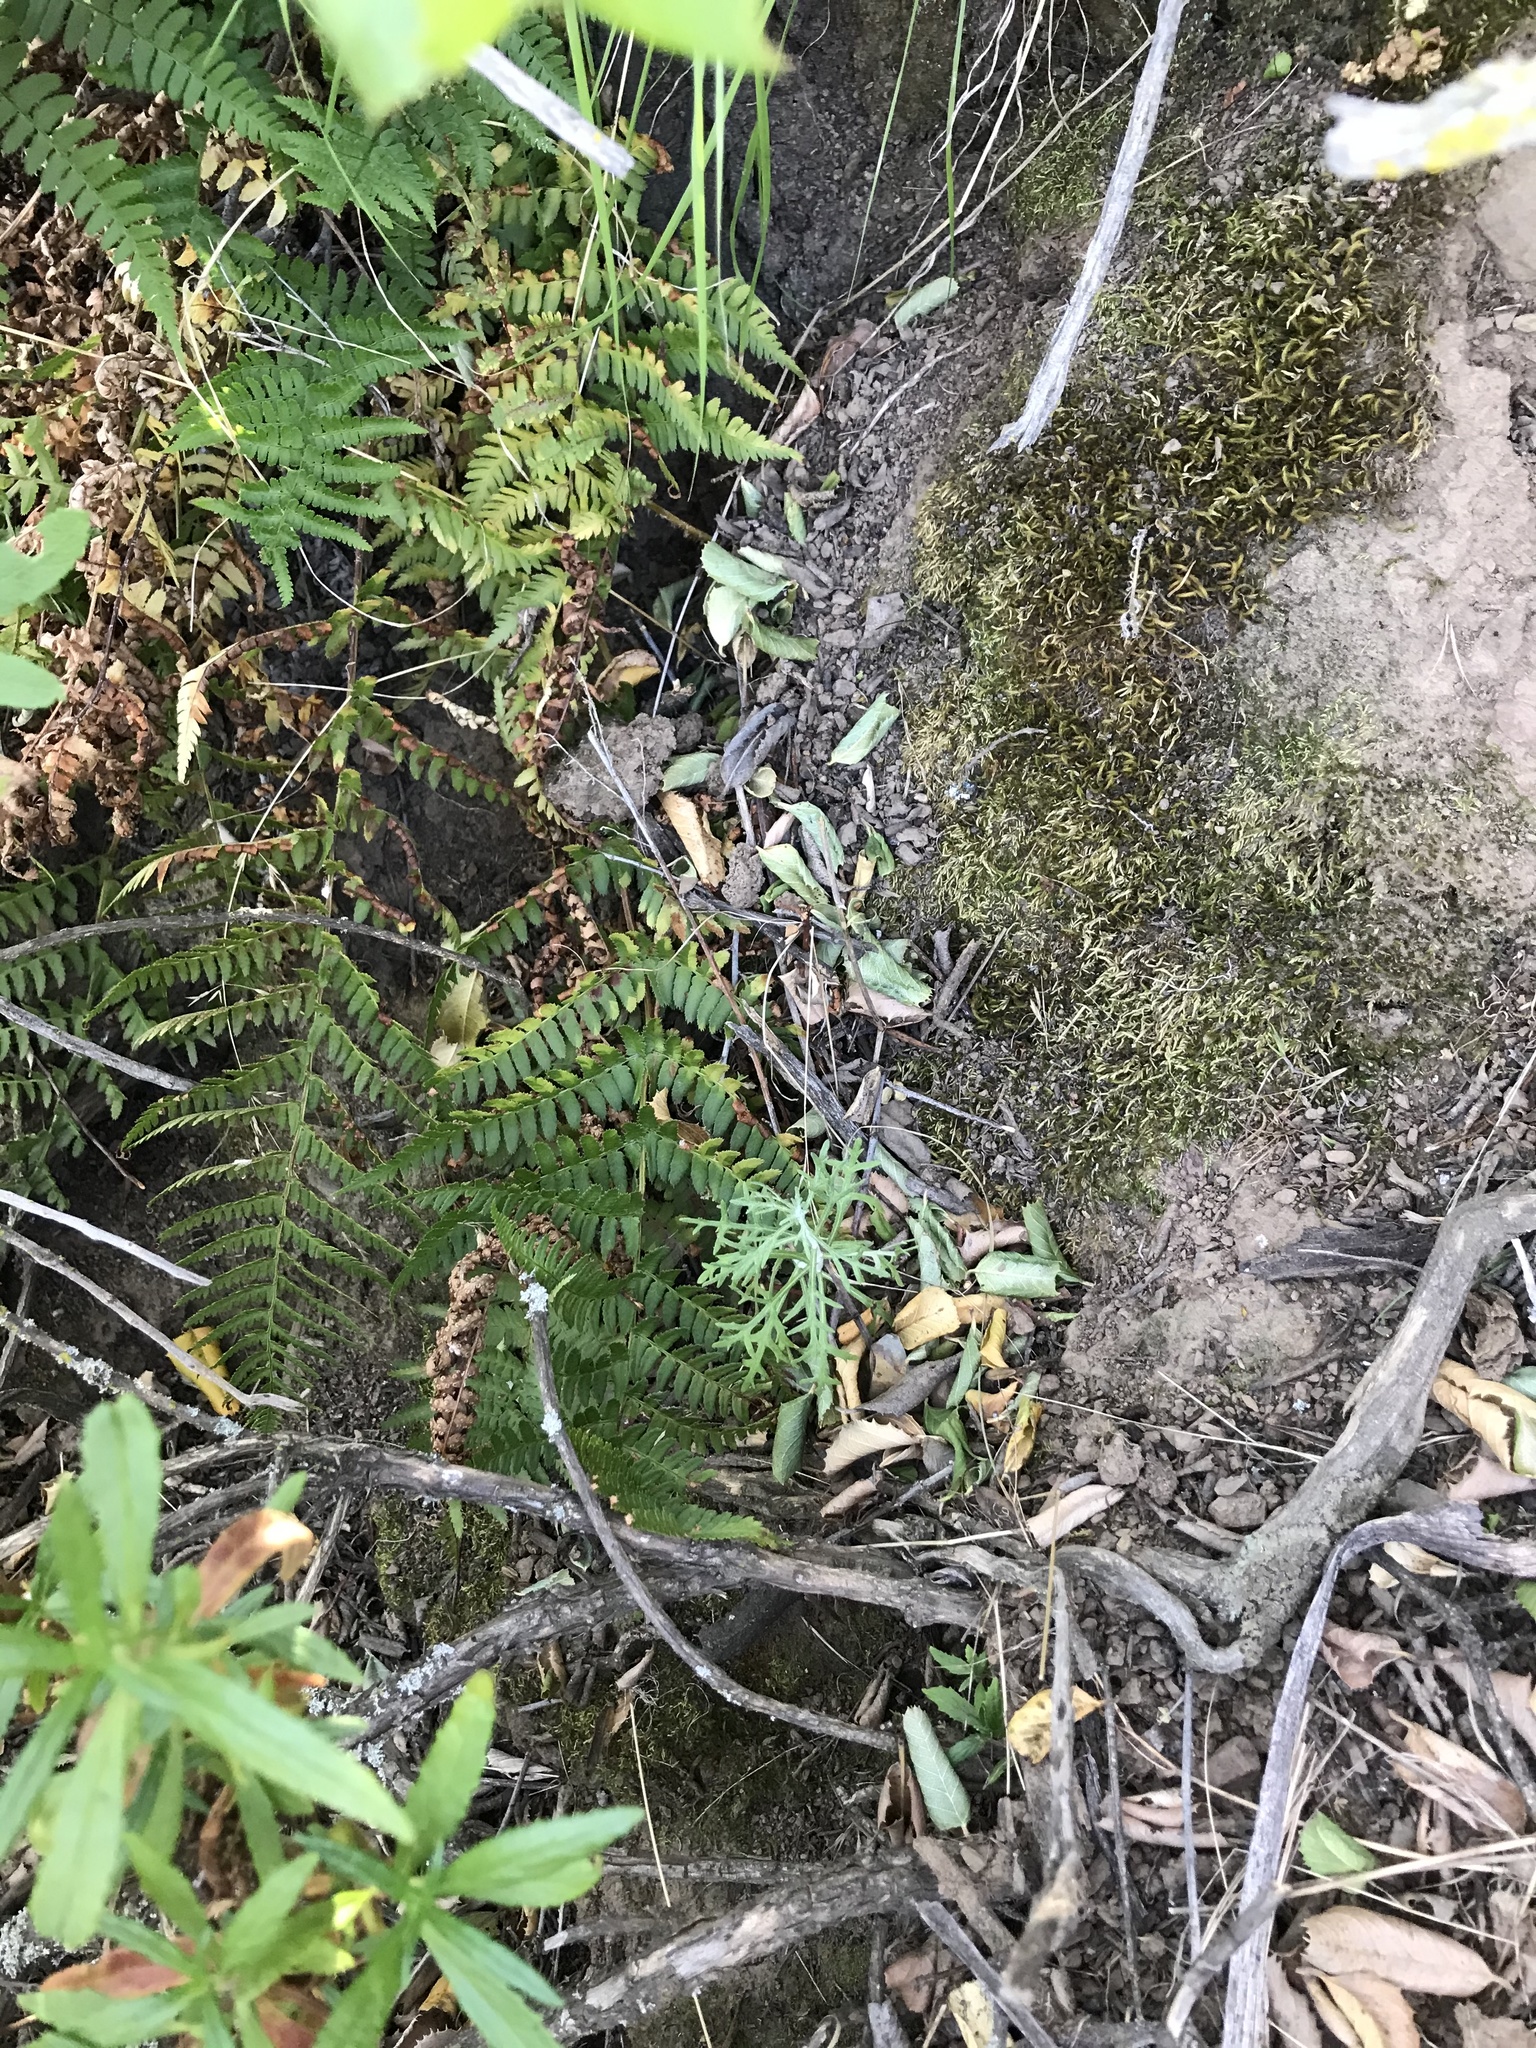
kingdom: Plantae
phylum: Tracheophyta
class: Polypodiopsida
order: Polypodiales
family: Dryopteridaceae
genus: Dryopteris
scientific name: Dryopteris arguta
